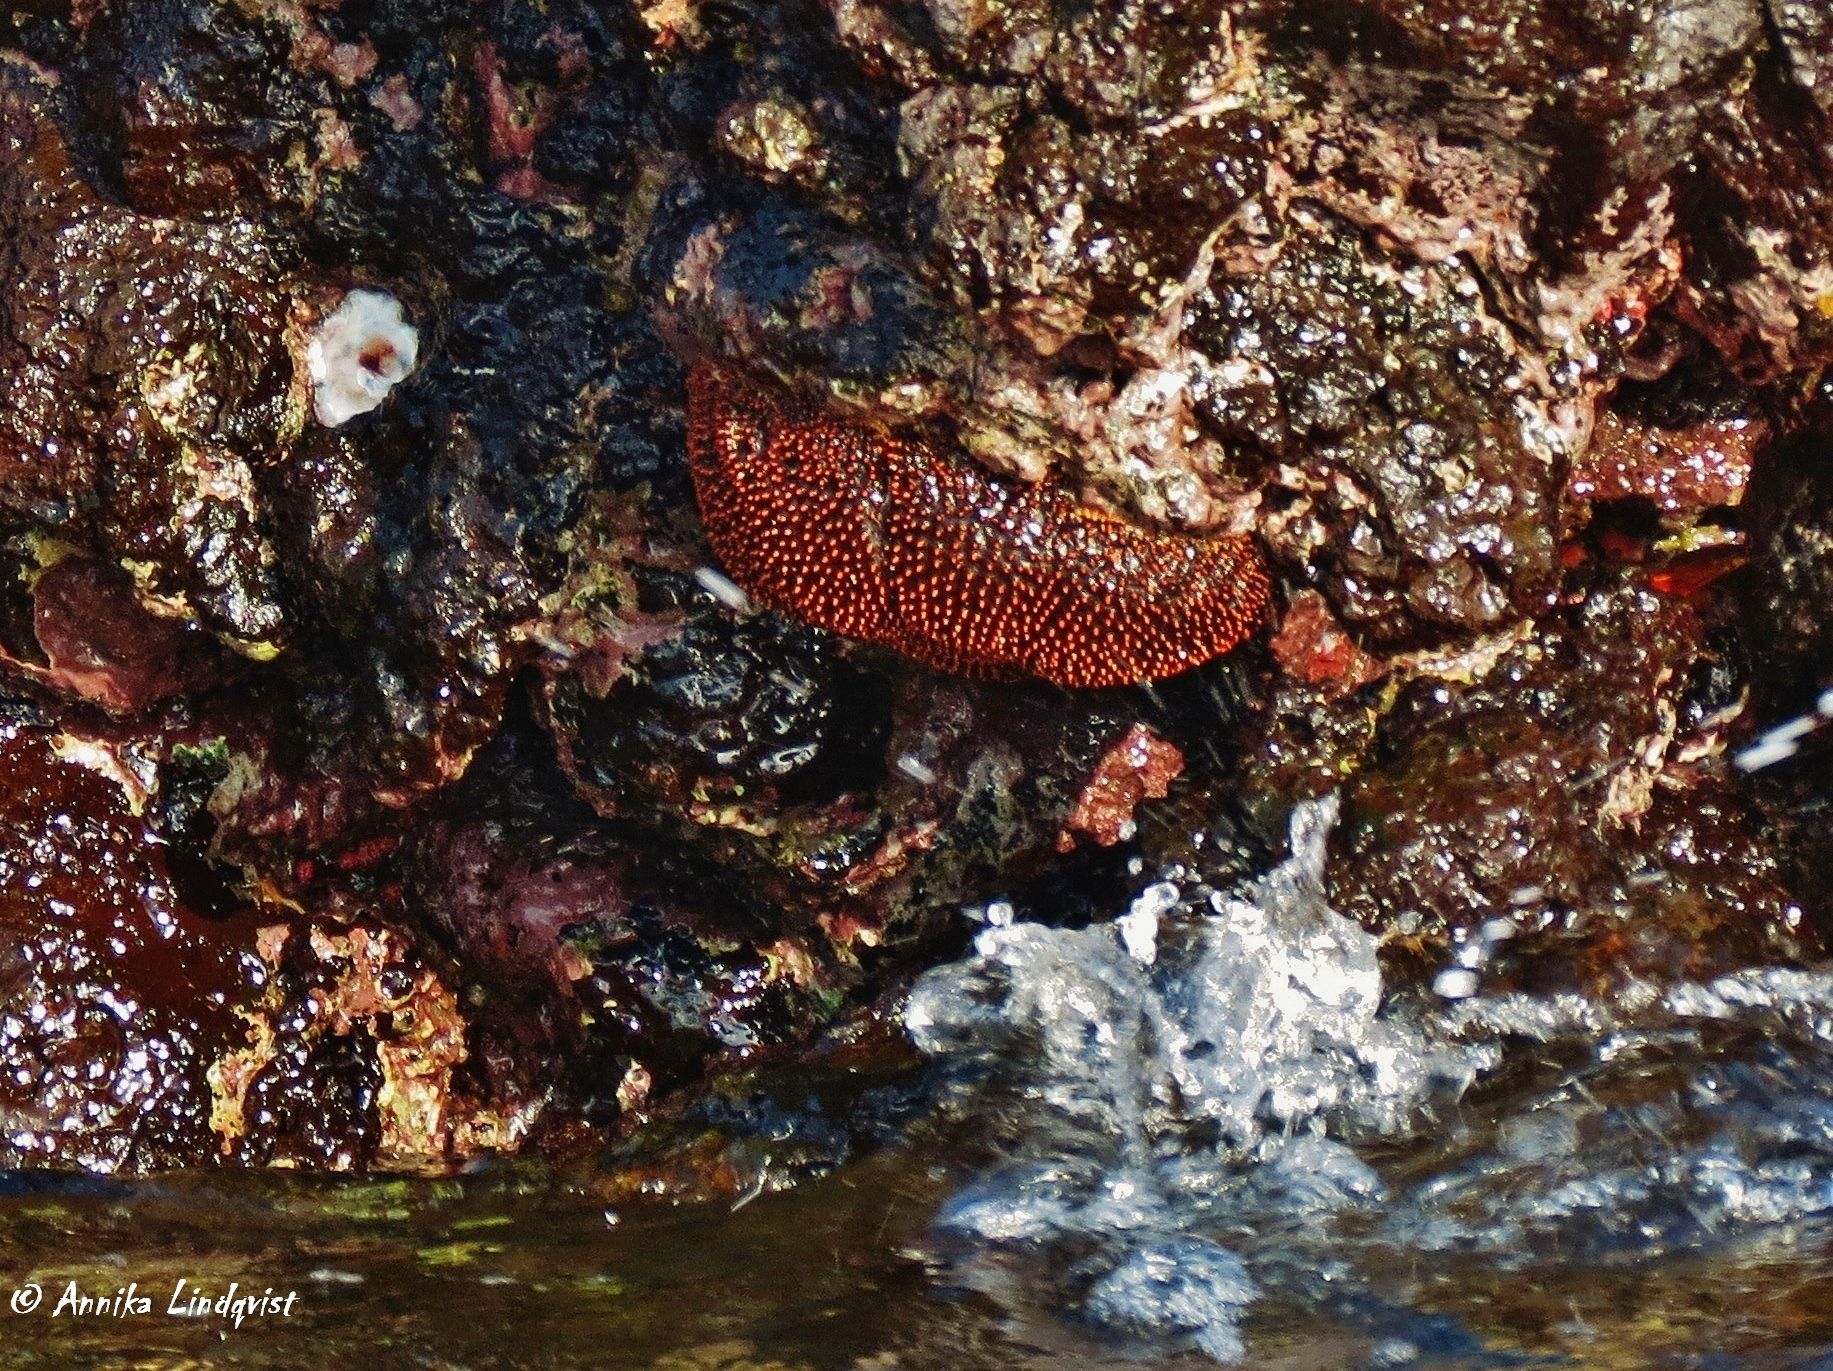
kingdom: Animalia
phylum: Echinodermata
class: Asteroidea
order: Forcipulatida
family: Heliasteridae
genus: Heliaster
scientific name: Heliaster cumingi
